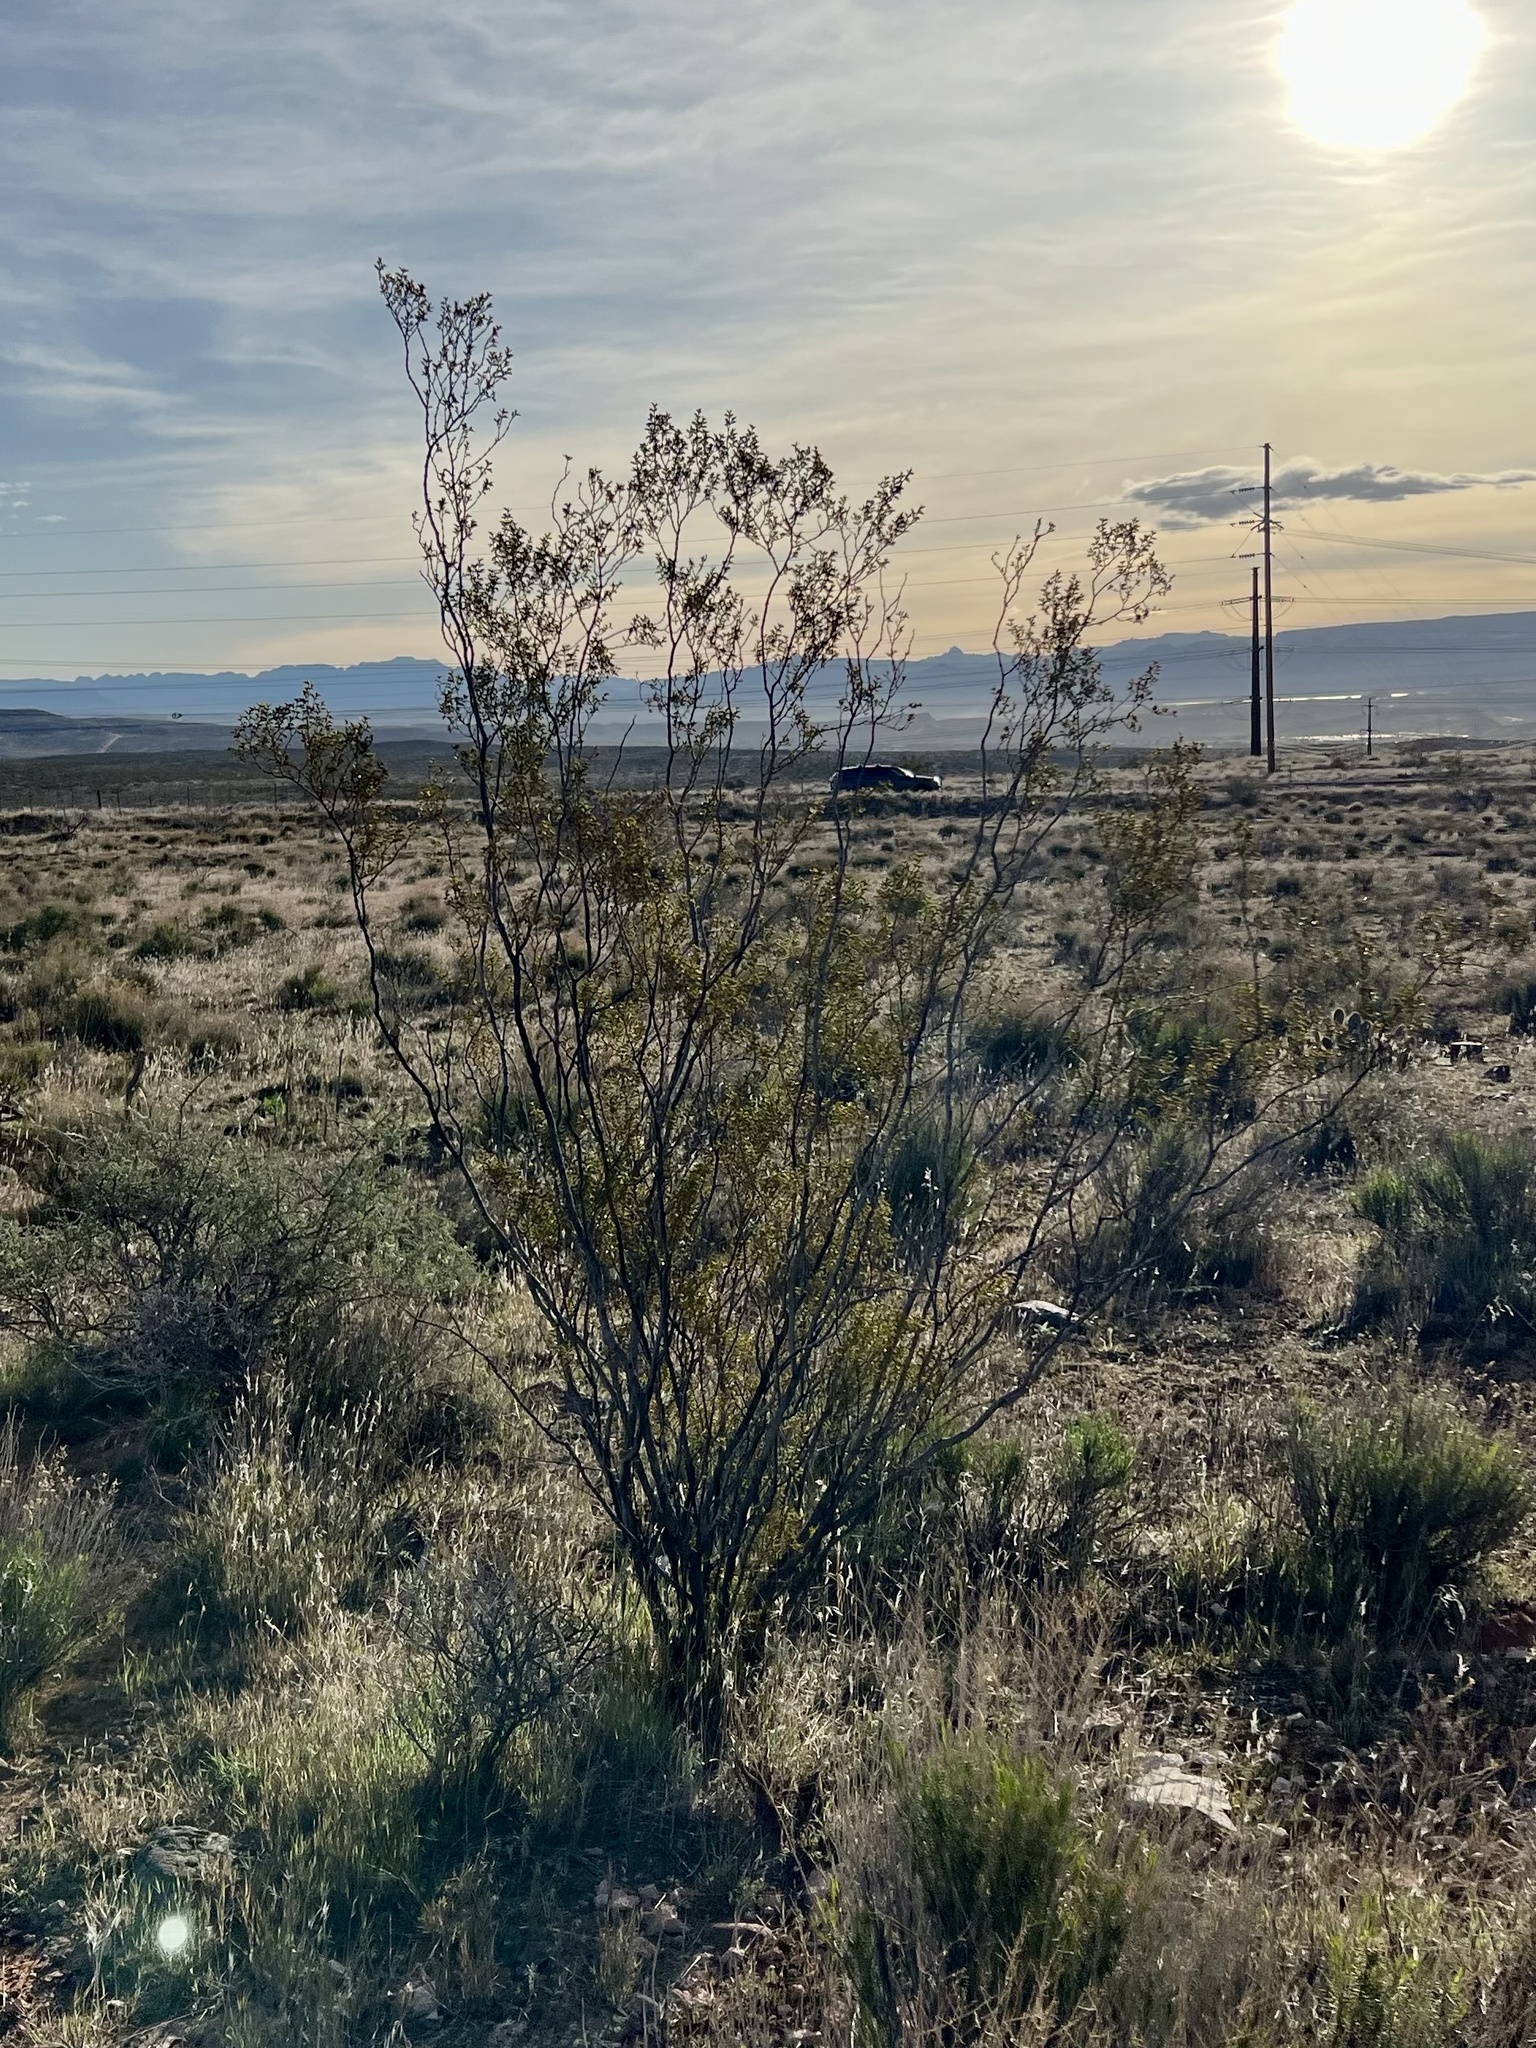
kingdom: Plantae
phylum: Tracheophyta
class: Magnoliopsida
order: Zygophyllales
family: Zygophyllaceae
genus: Larrea
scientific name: Larrea tridentata
